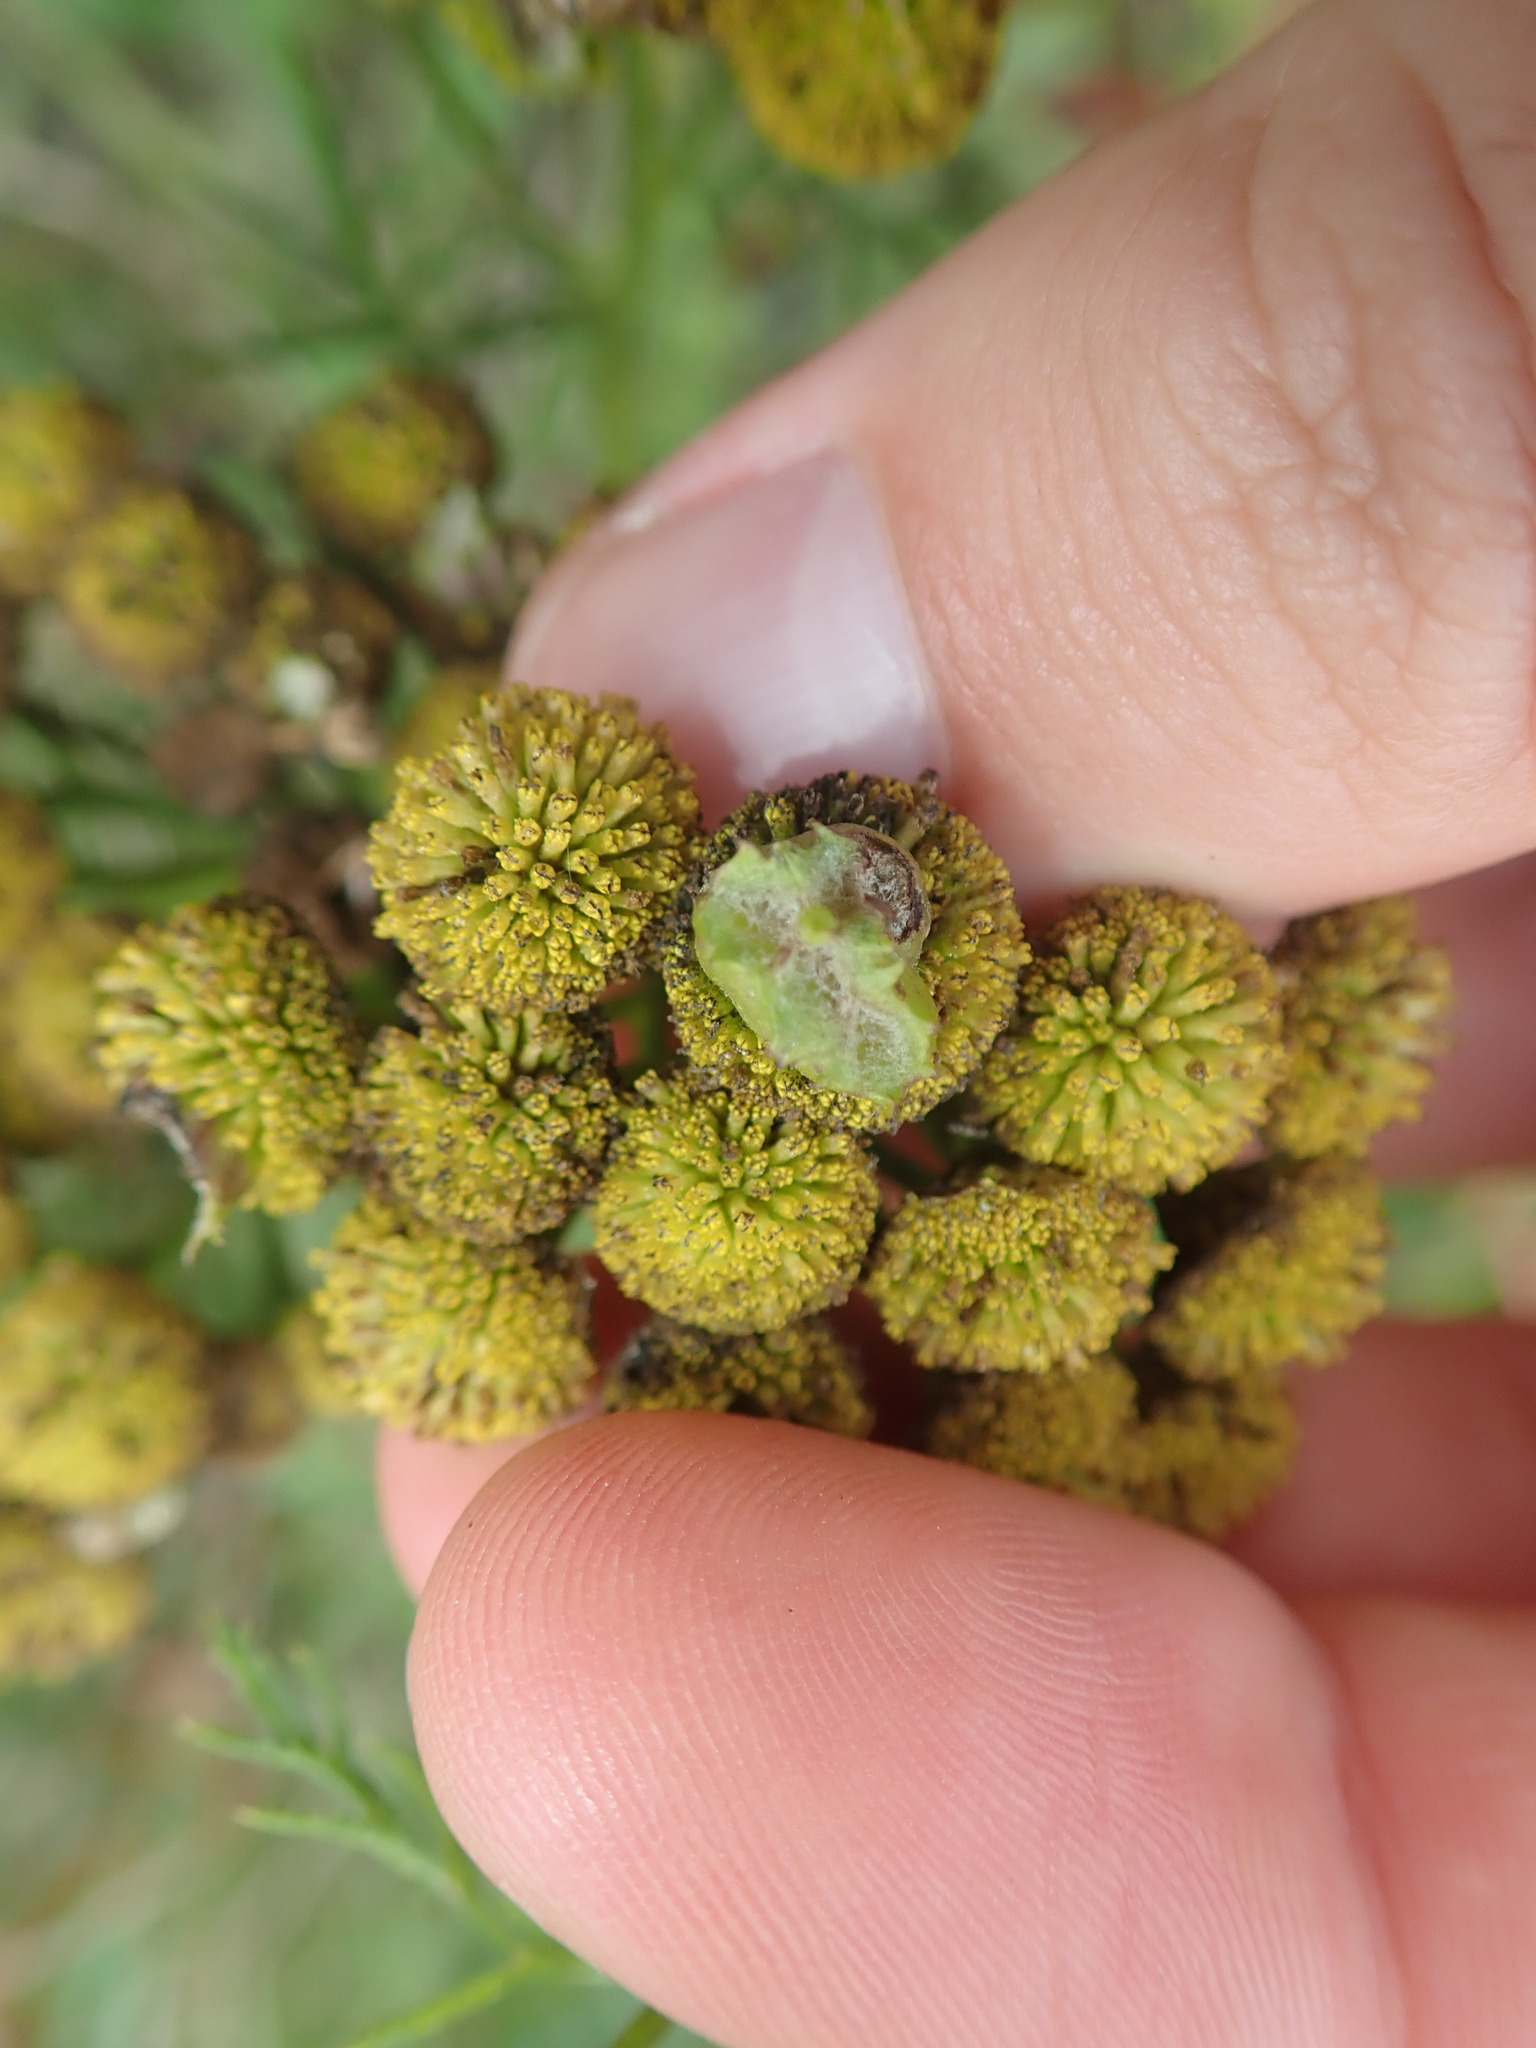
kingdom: Animalia
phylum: Arthropoda
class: Insecta
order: Diptera
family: Cecidomyiidae
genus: Rhopalomyia
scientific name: Rhopalomyia tanaceticolus
